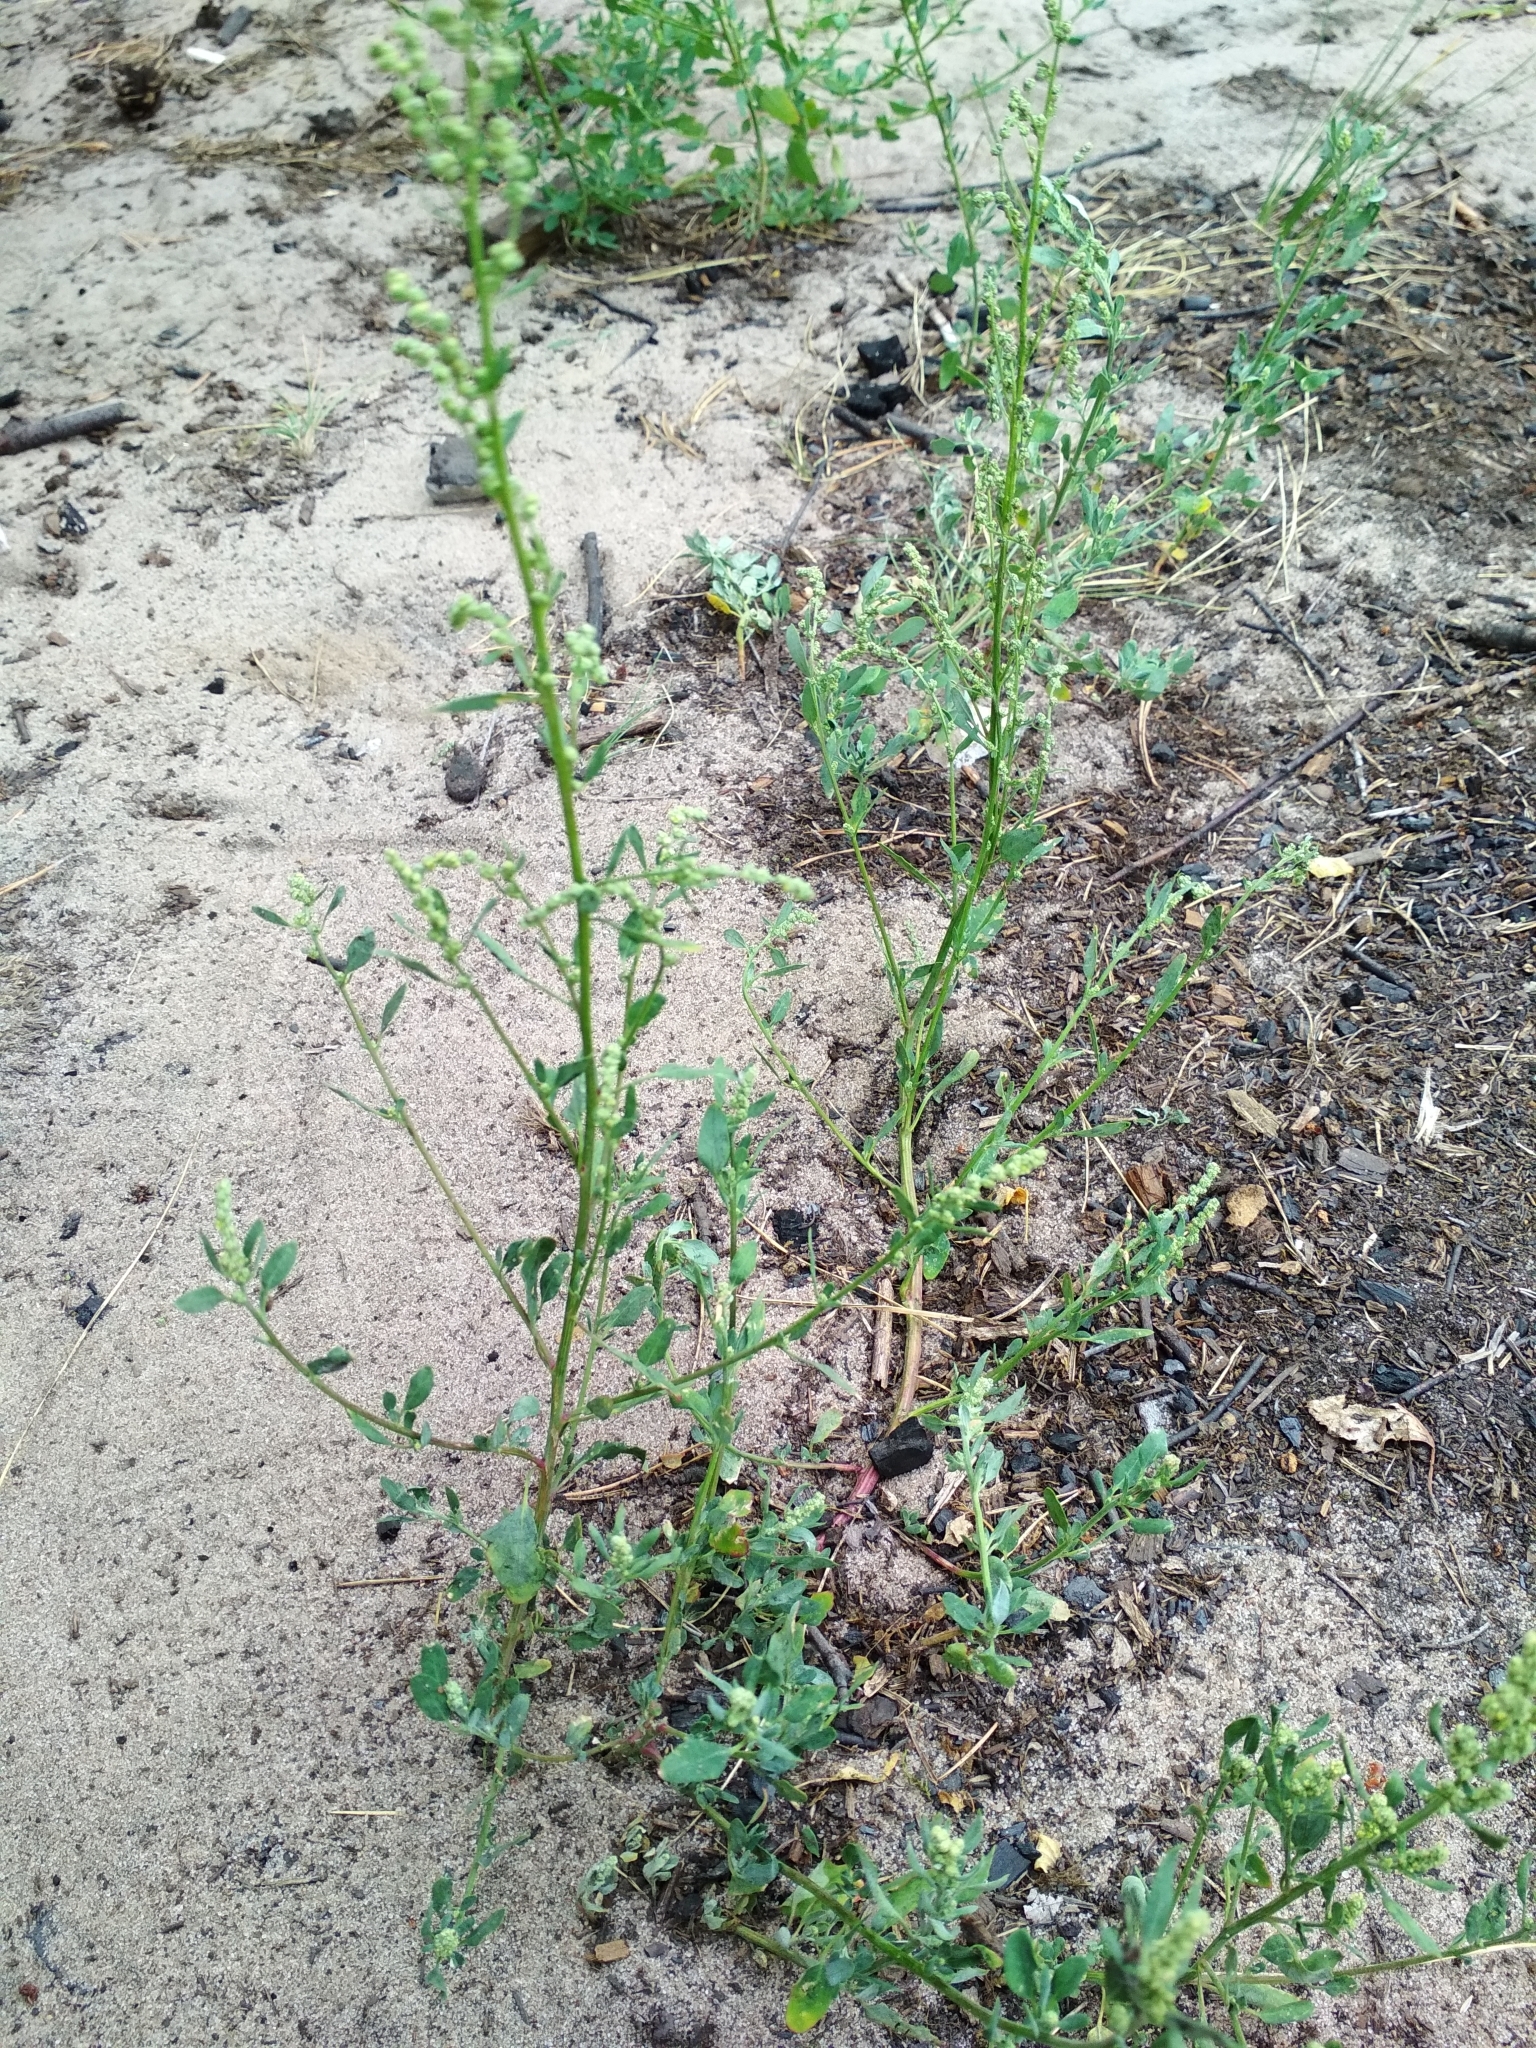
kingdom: Plantae
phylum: Tracheophyta
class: Magnoliopsida
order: Caryophyllales
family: Amaranthaceae
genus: Chenopodium
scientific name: Chenopodium album
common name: Fat-hen
